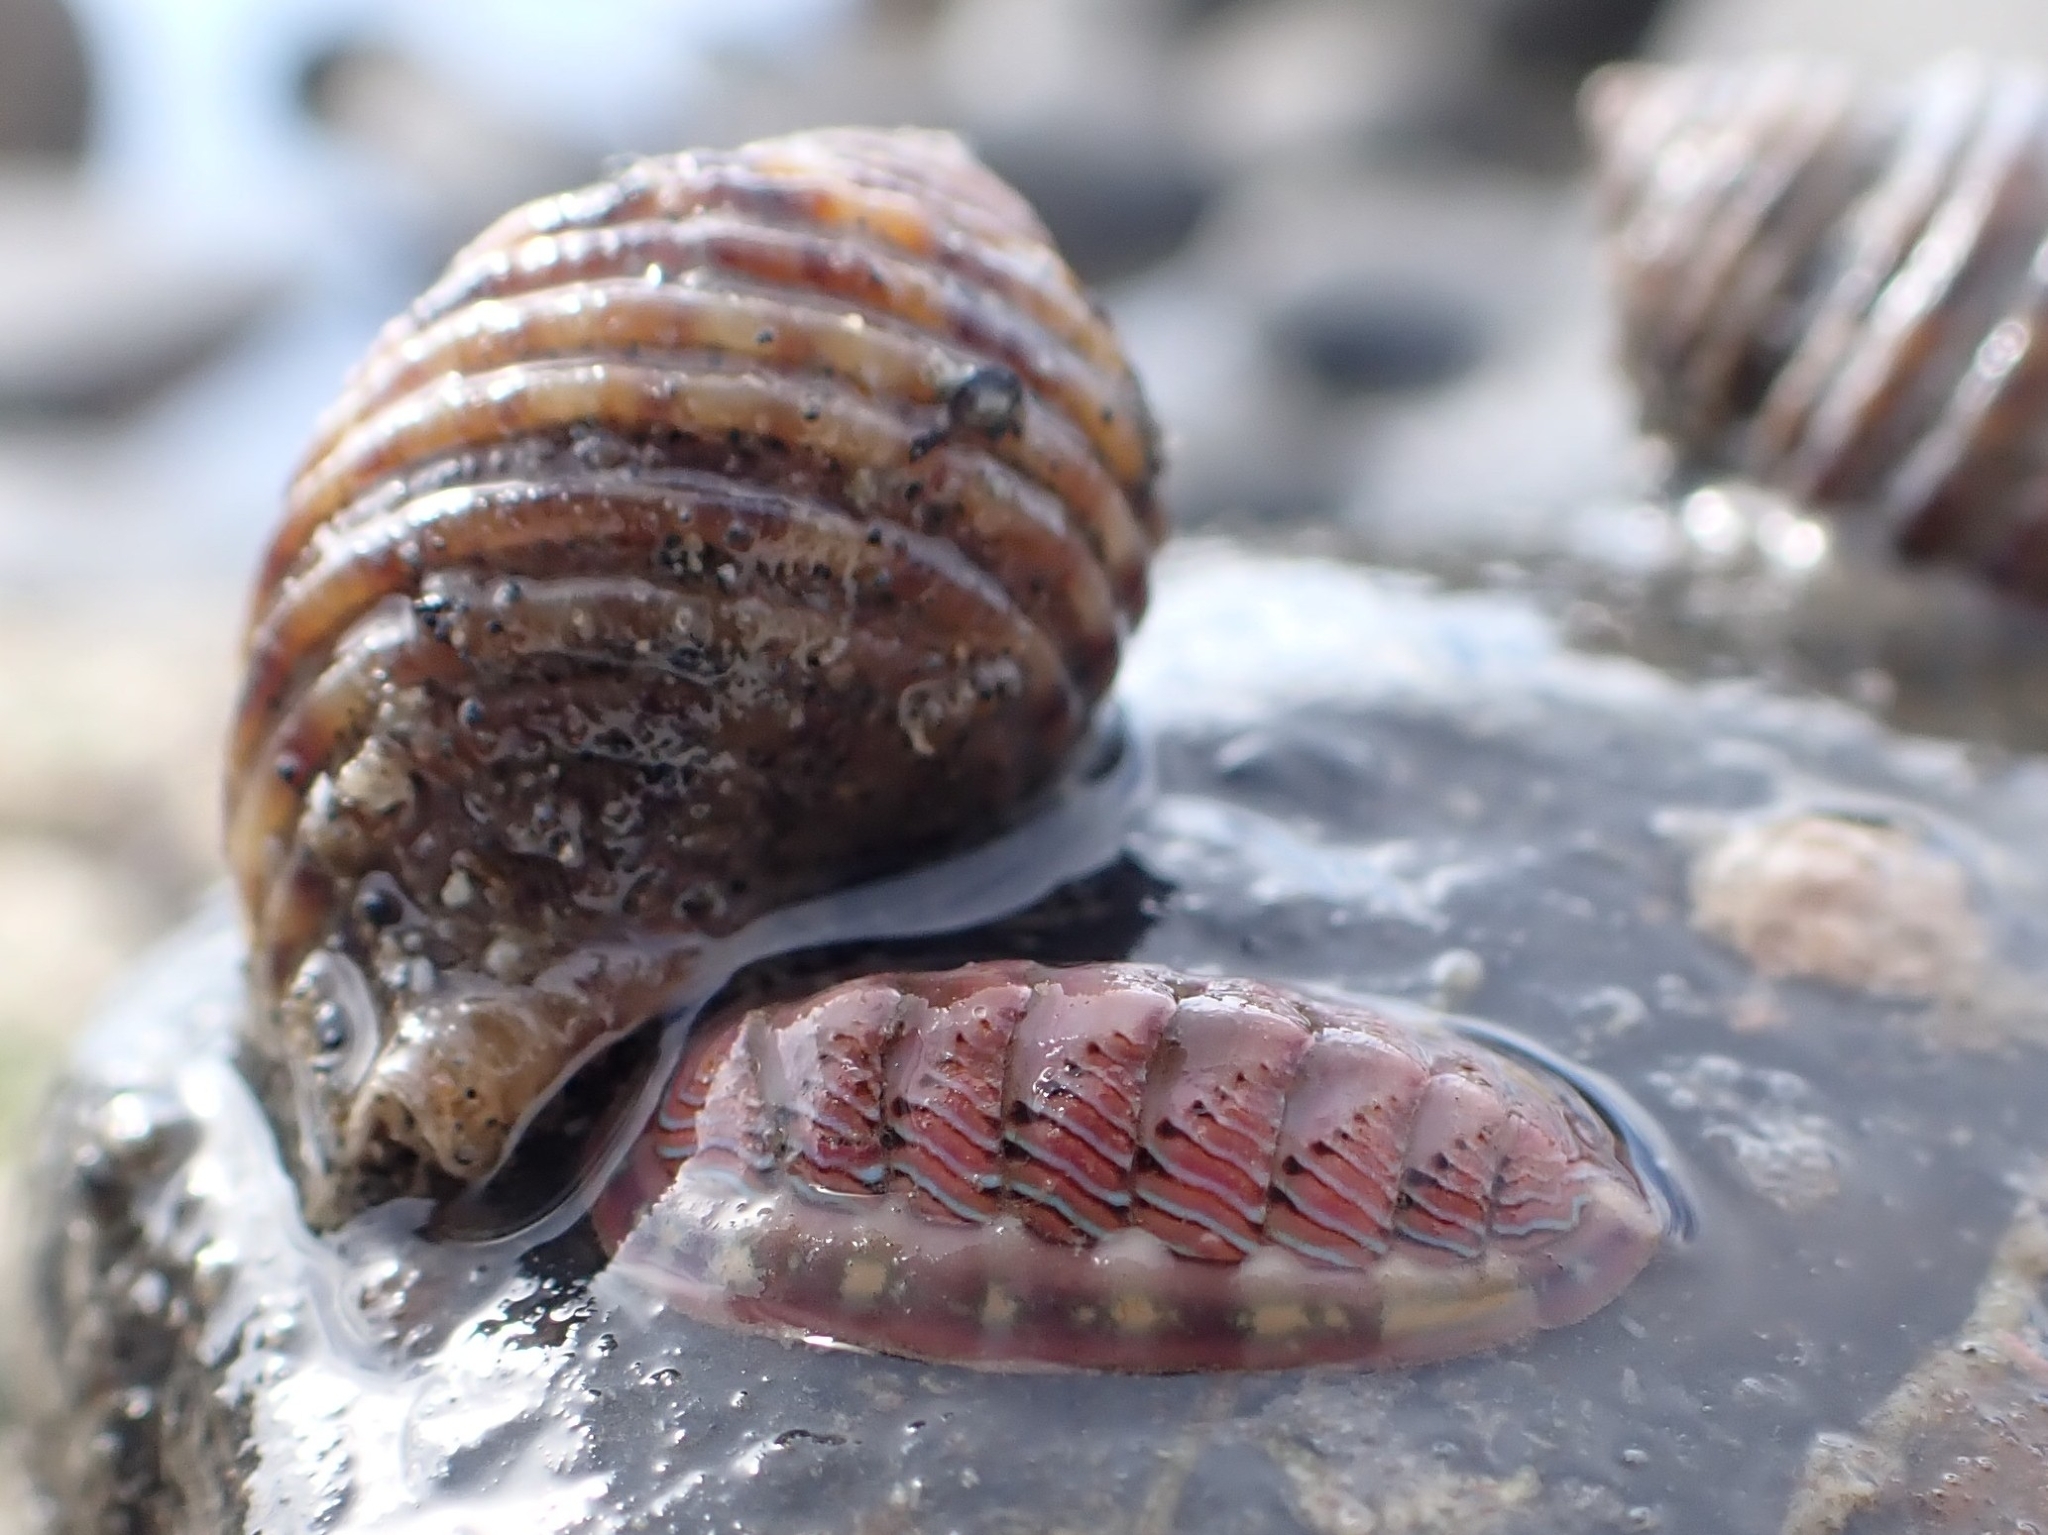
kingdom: Animalia
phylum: Mollusca
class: Polyplacophora
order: Chitonida
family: Tonicellidae
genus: Tonicella
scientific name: Tonicella lineata
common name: Lined chiton
